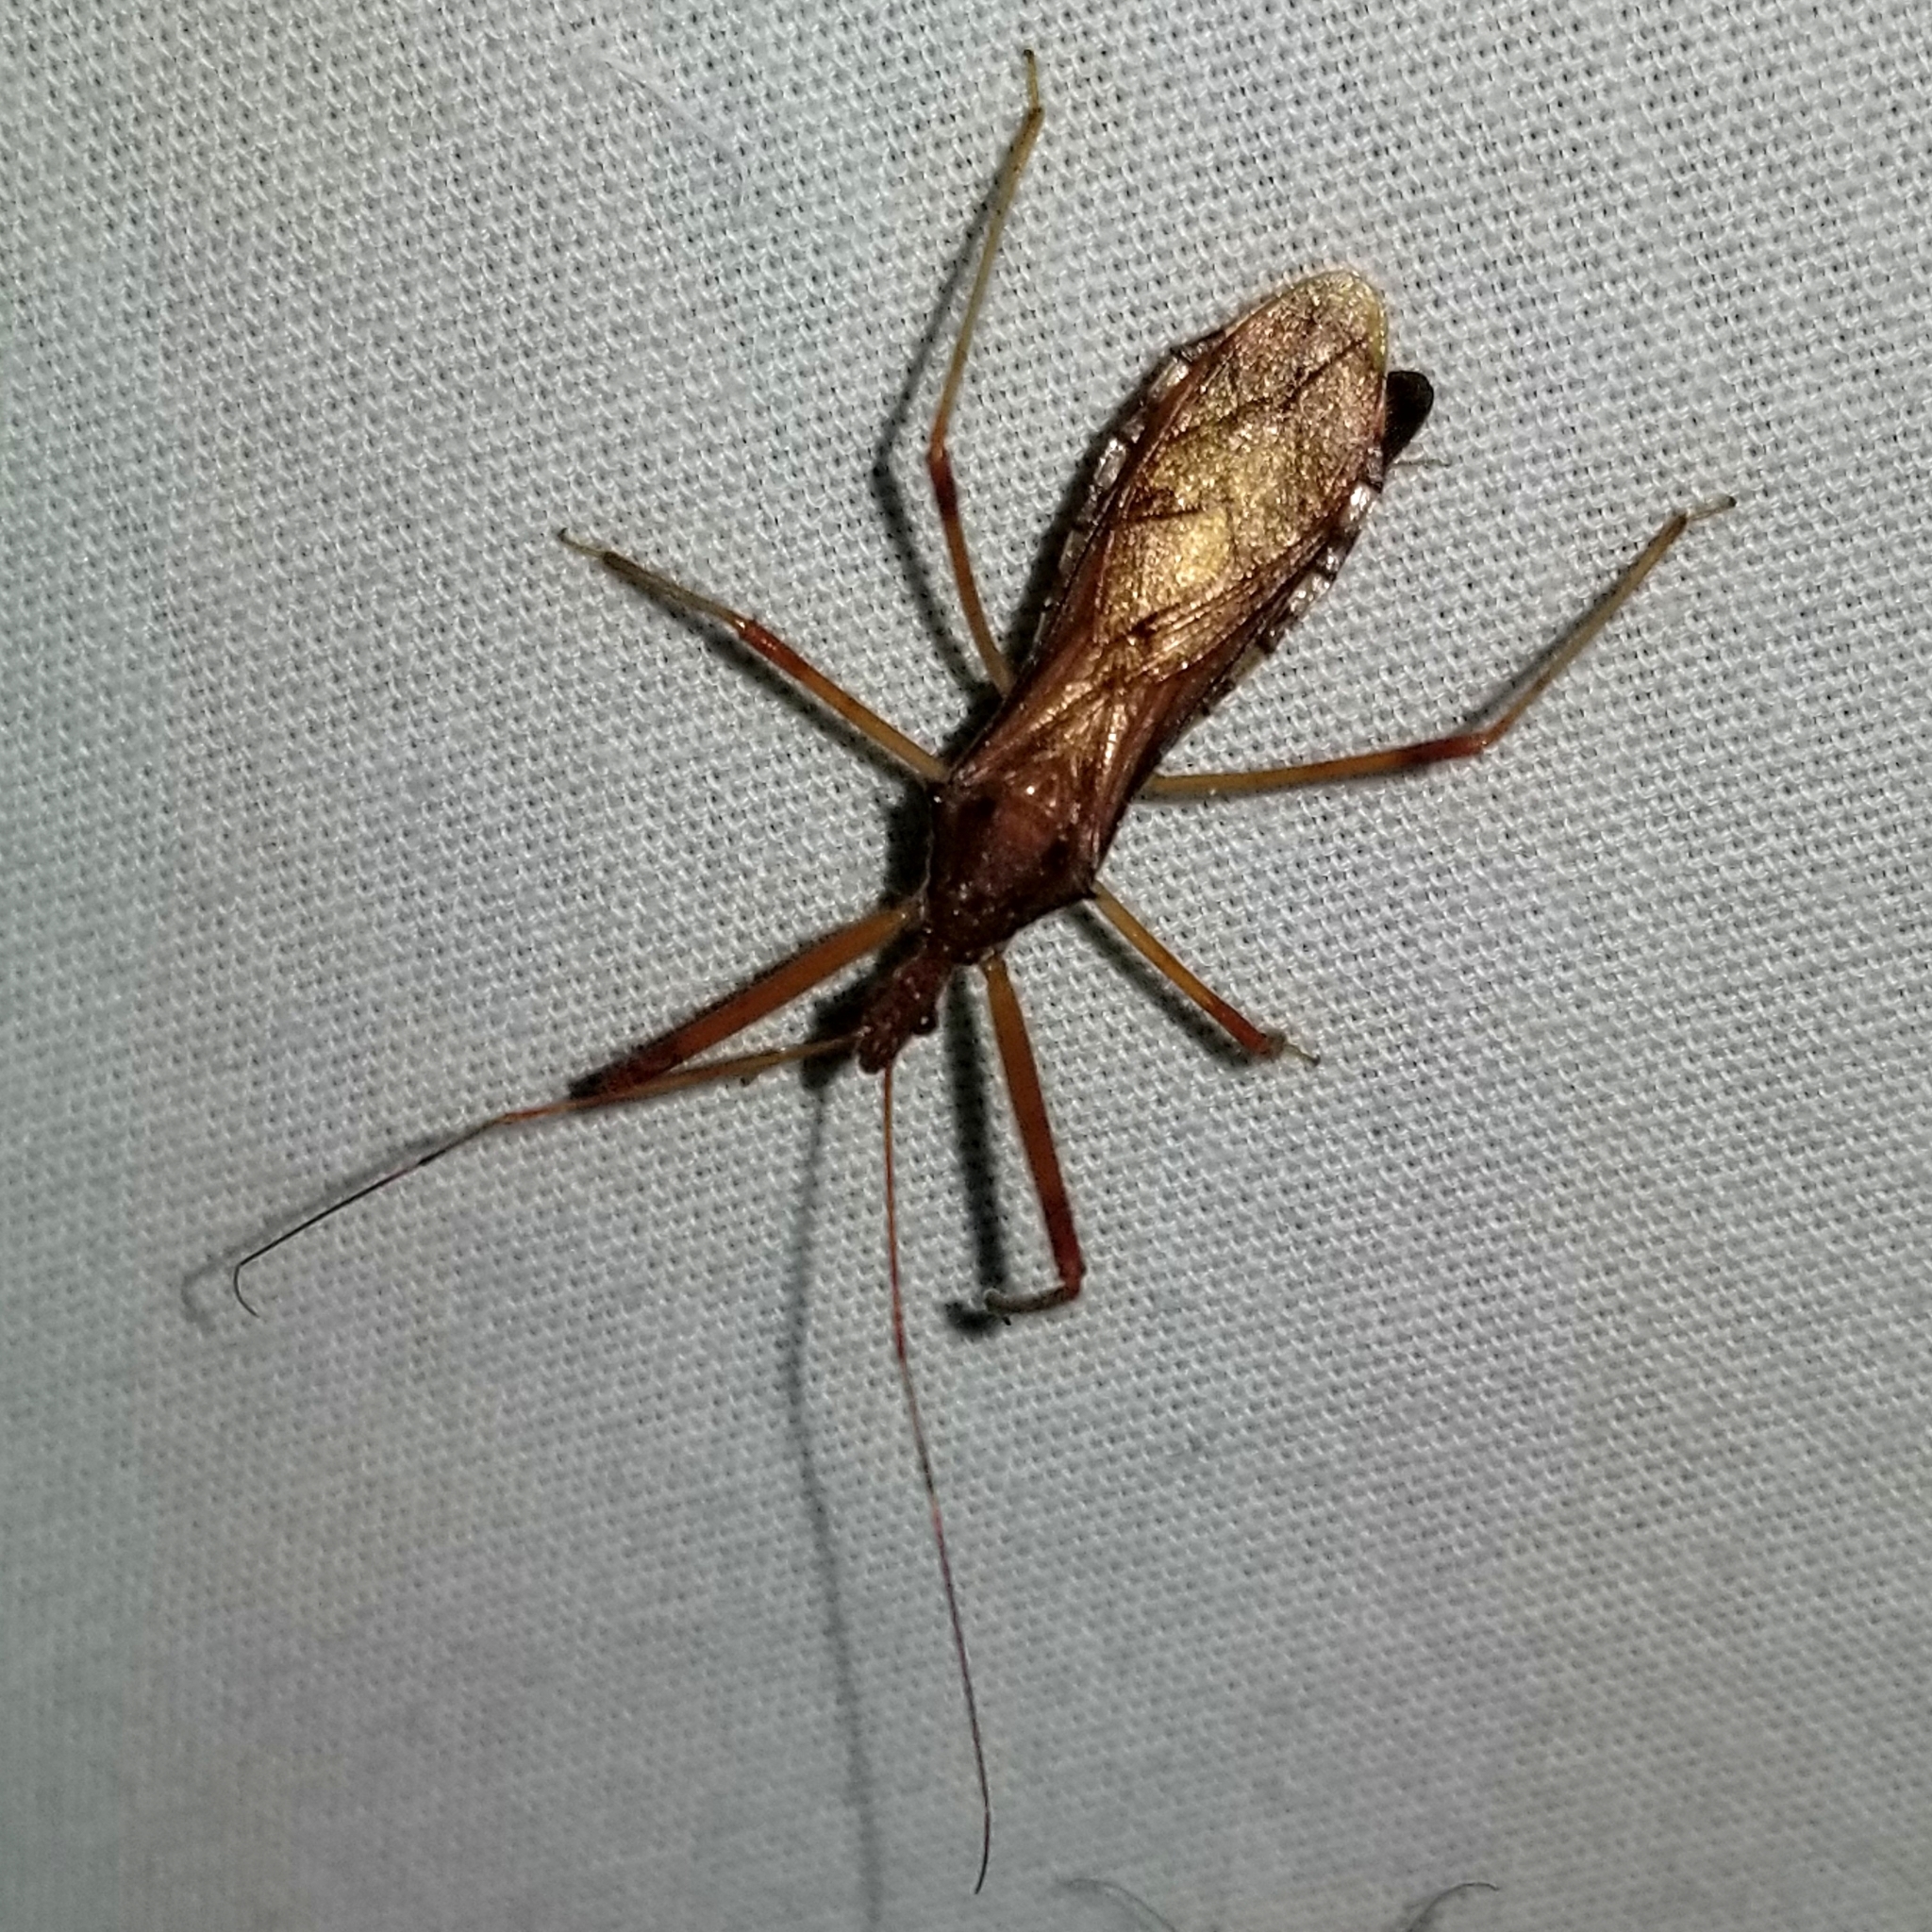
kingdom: Animalia
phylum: Arthropoda
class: Insecta
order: Hemiptera
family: Reduviidae
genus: Rocconota
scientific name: Rocconota annulicornis
